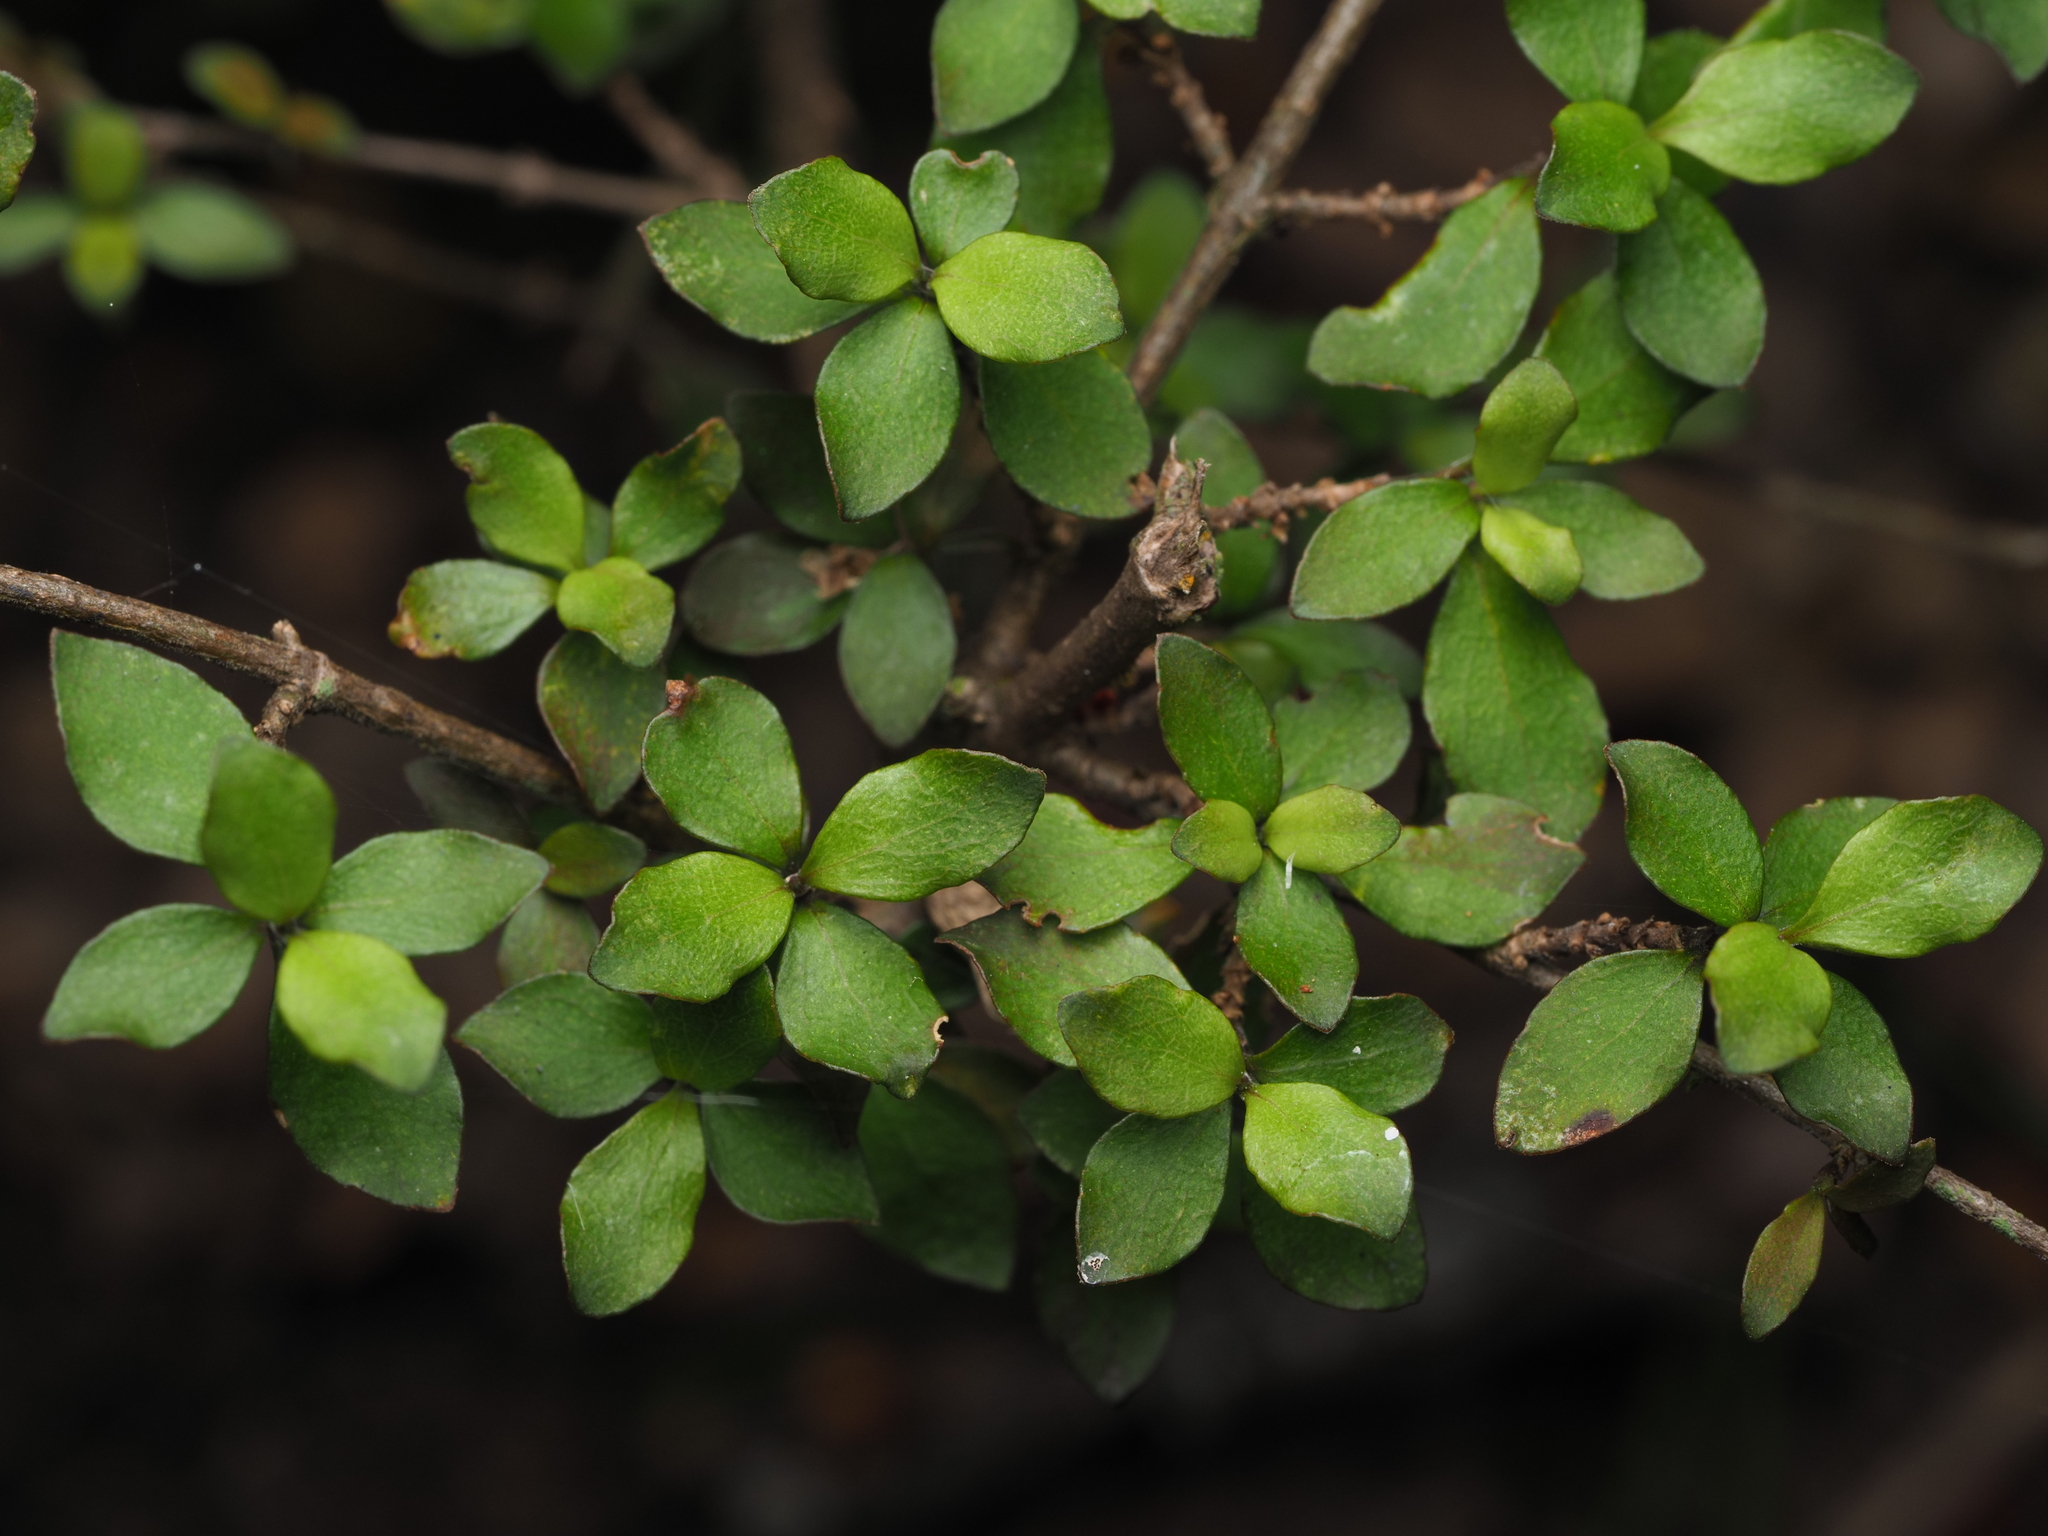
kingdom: Plantae
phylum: Tracheophyta
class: Magnoliopsida
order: Gentianales
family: Rubiaceae
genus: Coprosma
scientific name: Coprosma rhamnoides
